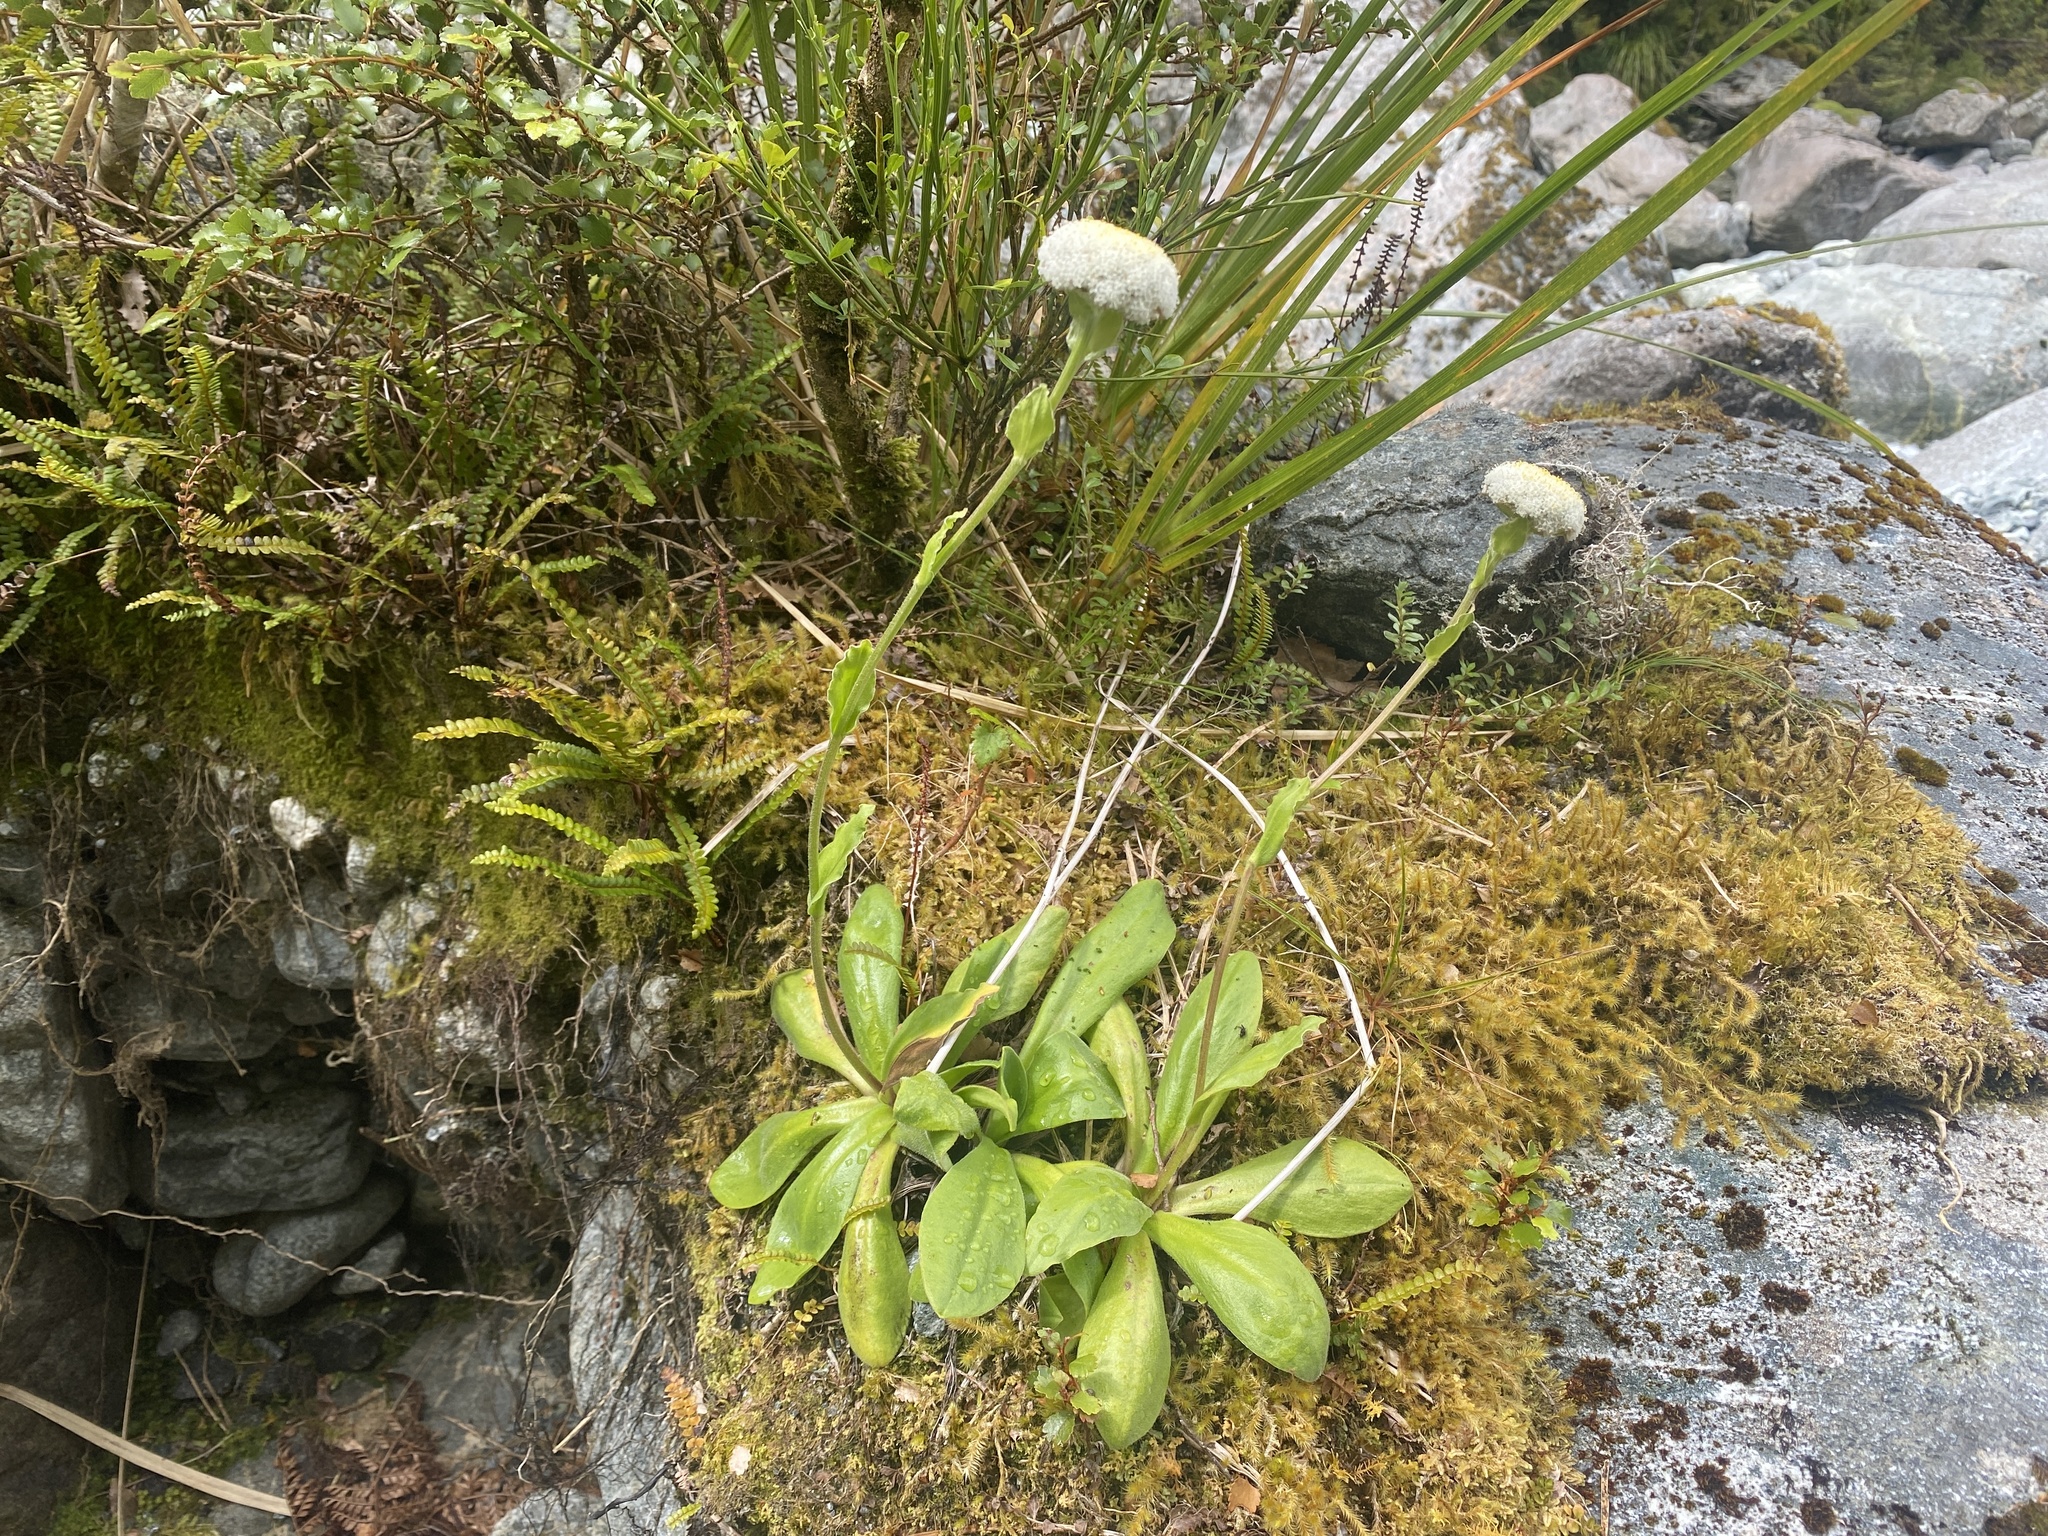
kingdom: Plantae
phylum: Tracheophyta
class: Magnoliopsida
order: Asterales
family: Asteraceae
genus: Craspedia
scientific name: Craspedia uniflora
